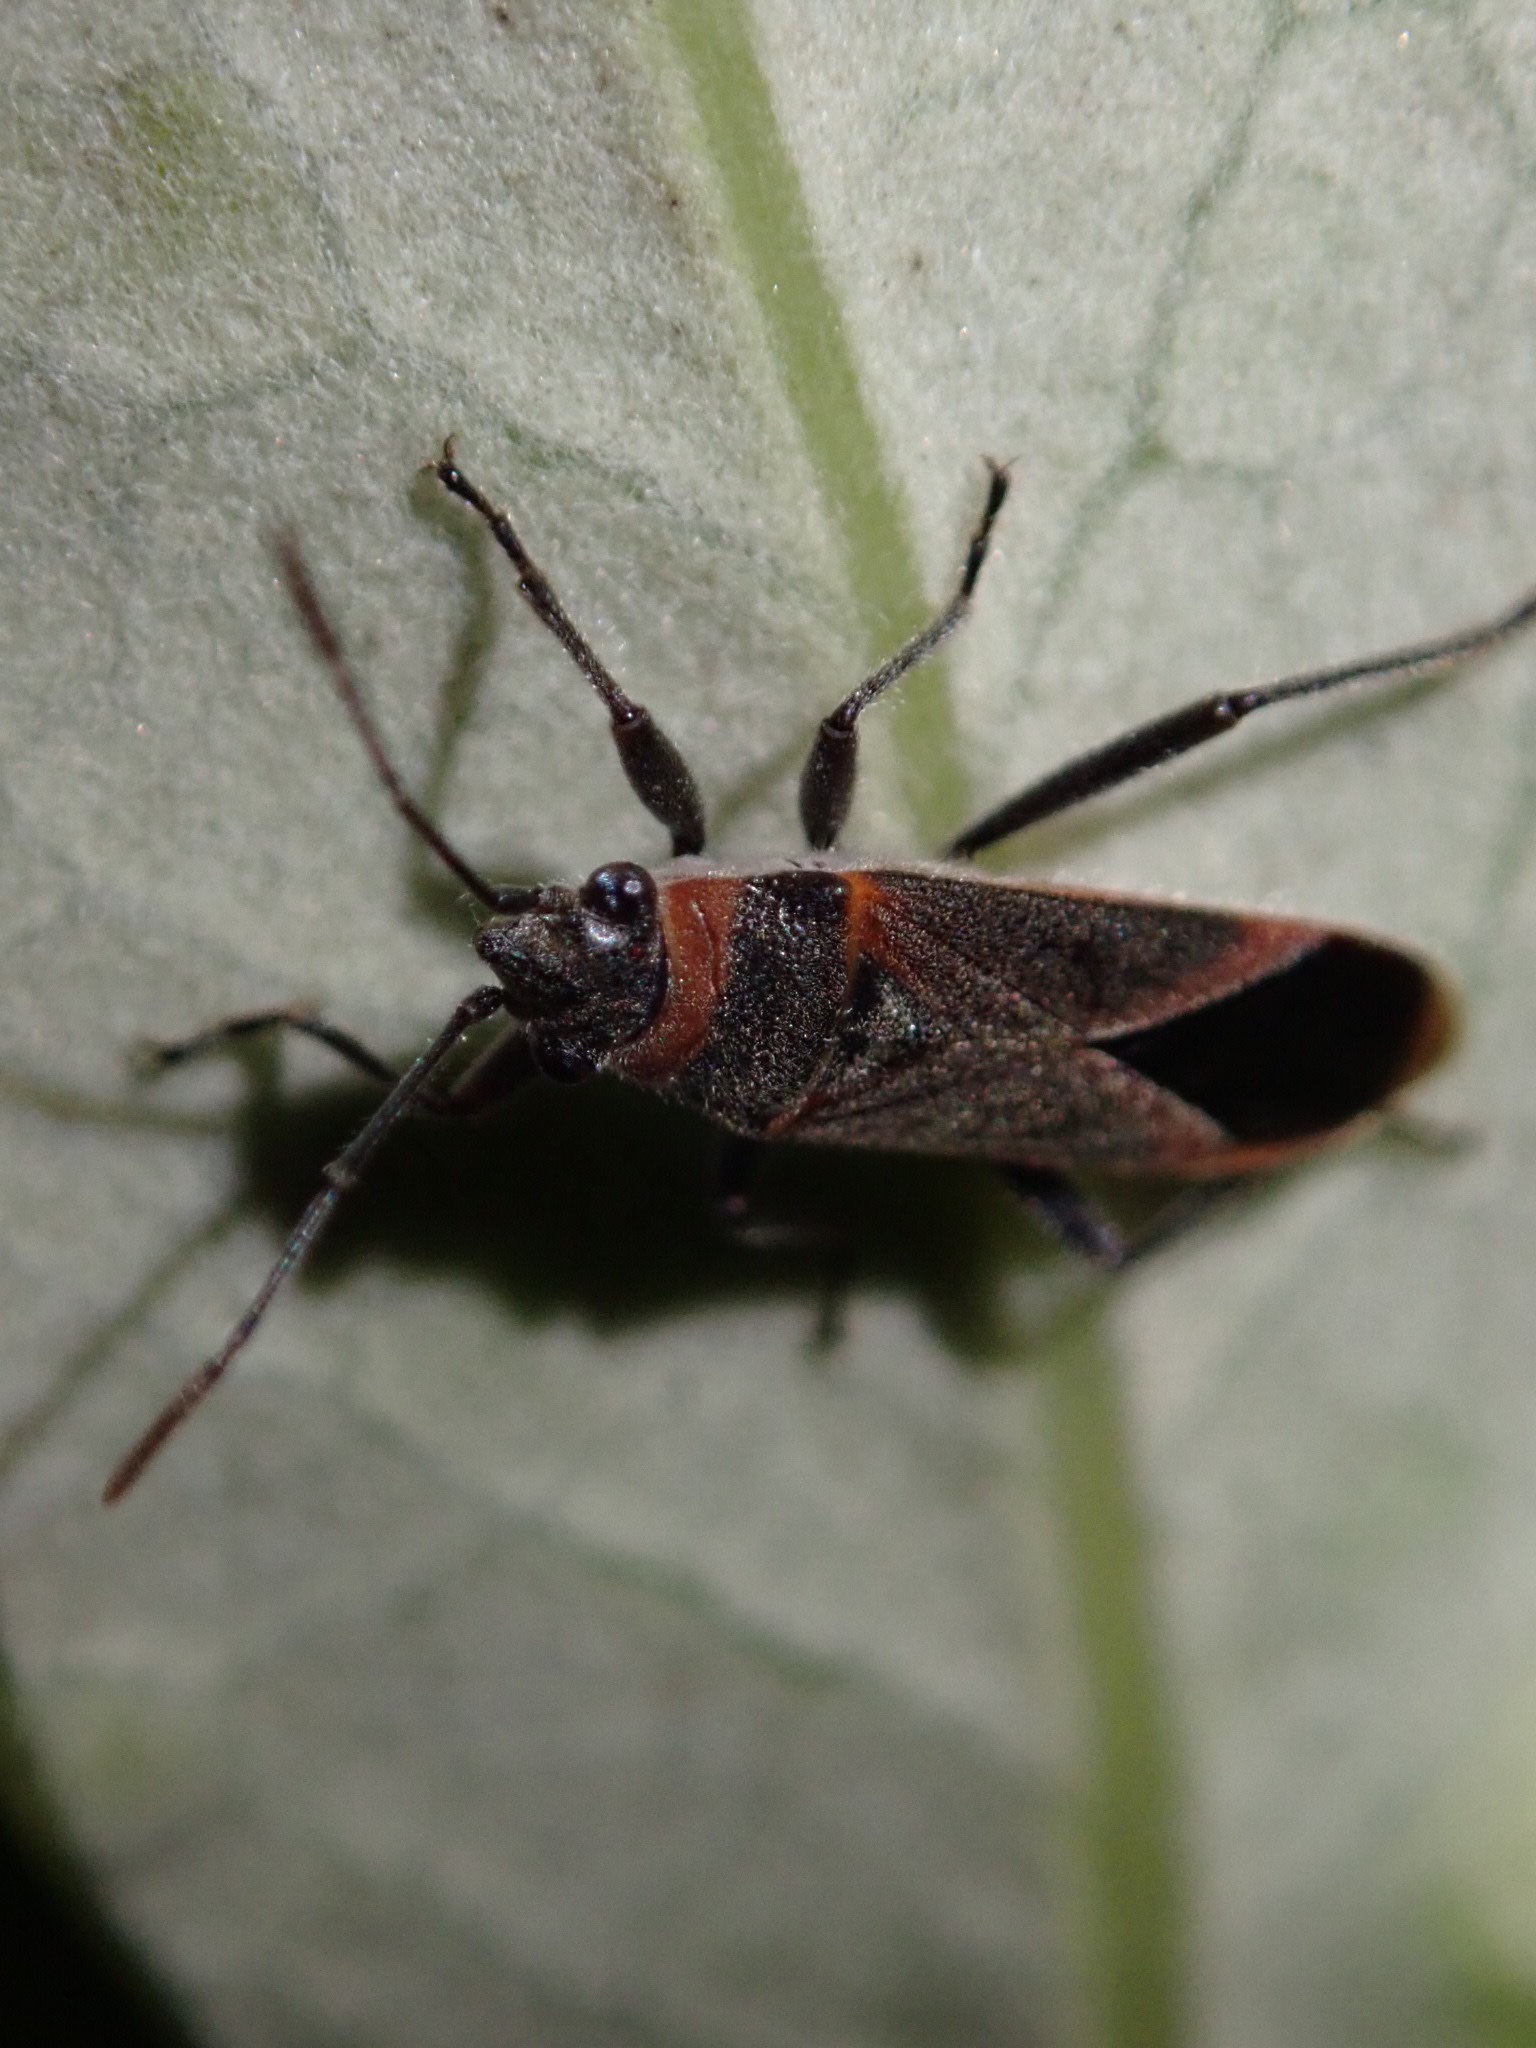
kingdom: Animalia
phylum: Arthropoda
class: Insecta
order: Hemiptera
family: Lygaeidae
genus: Arocatus
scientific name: Arocatus rusticus
